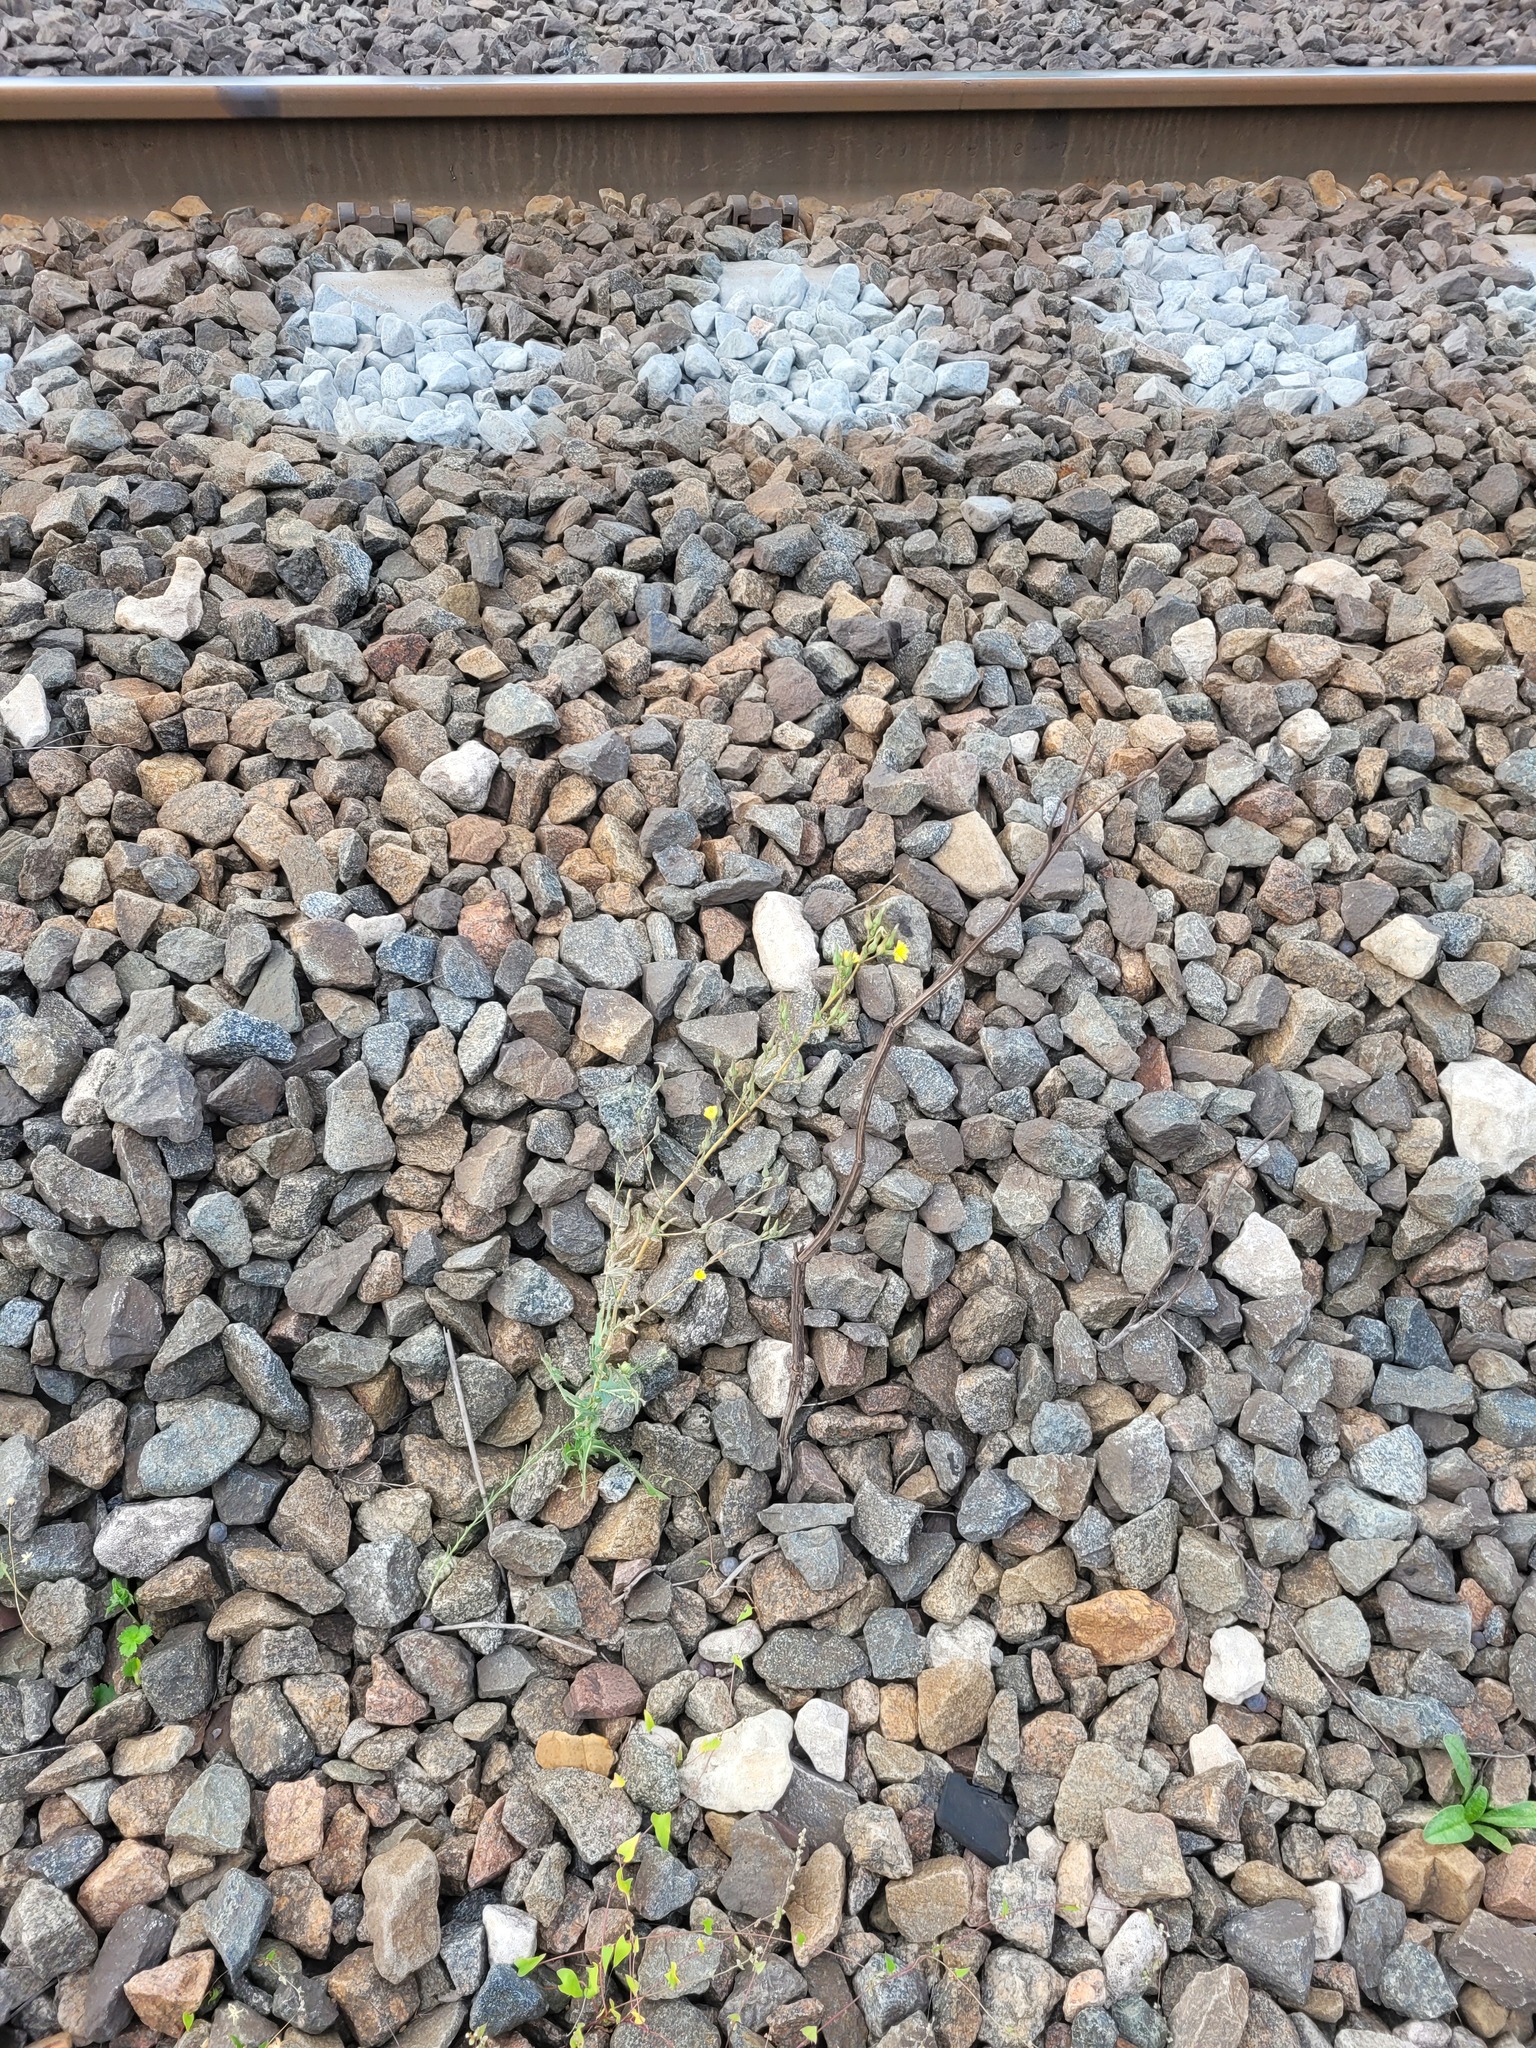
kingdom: Plantae
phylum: Tracheophyta
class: Magnoliopsida
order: Asterales
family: Asteraceae
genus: Lactuca
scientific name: Lactuca serriola
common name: Prickly lettuce
